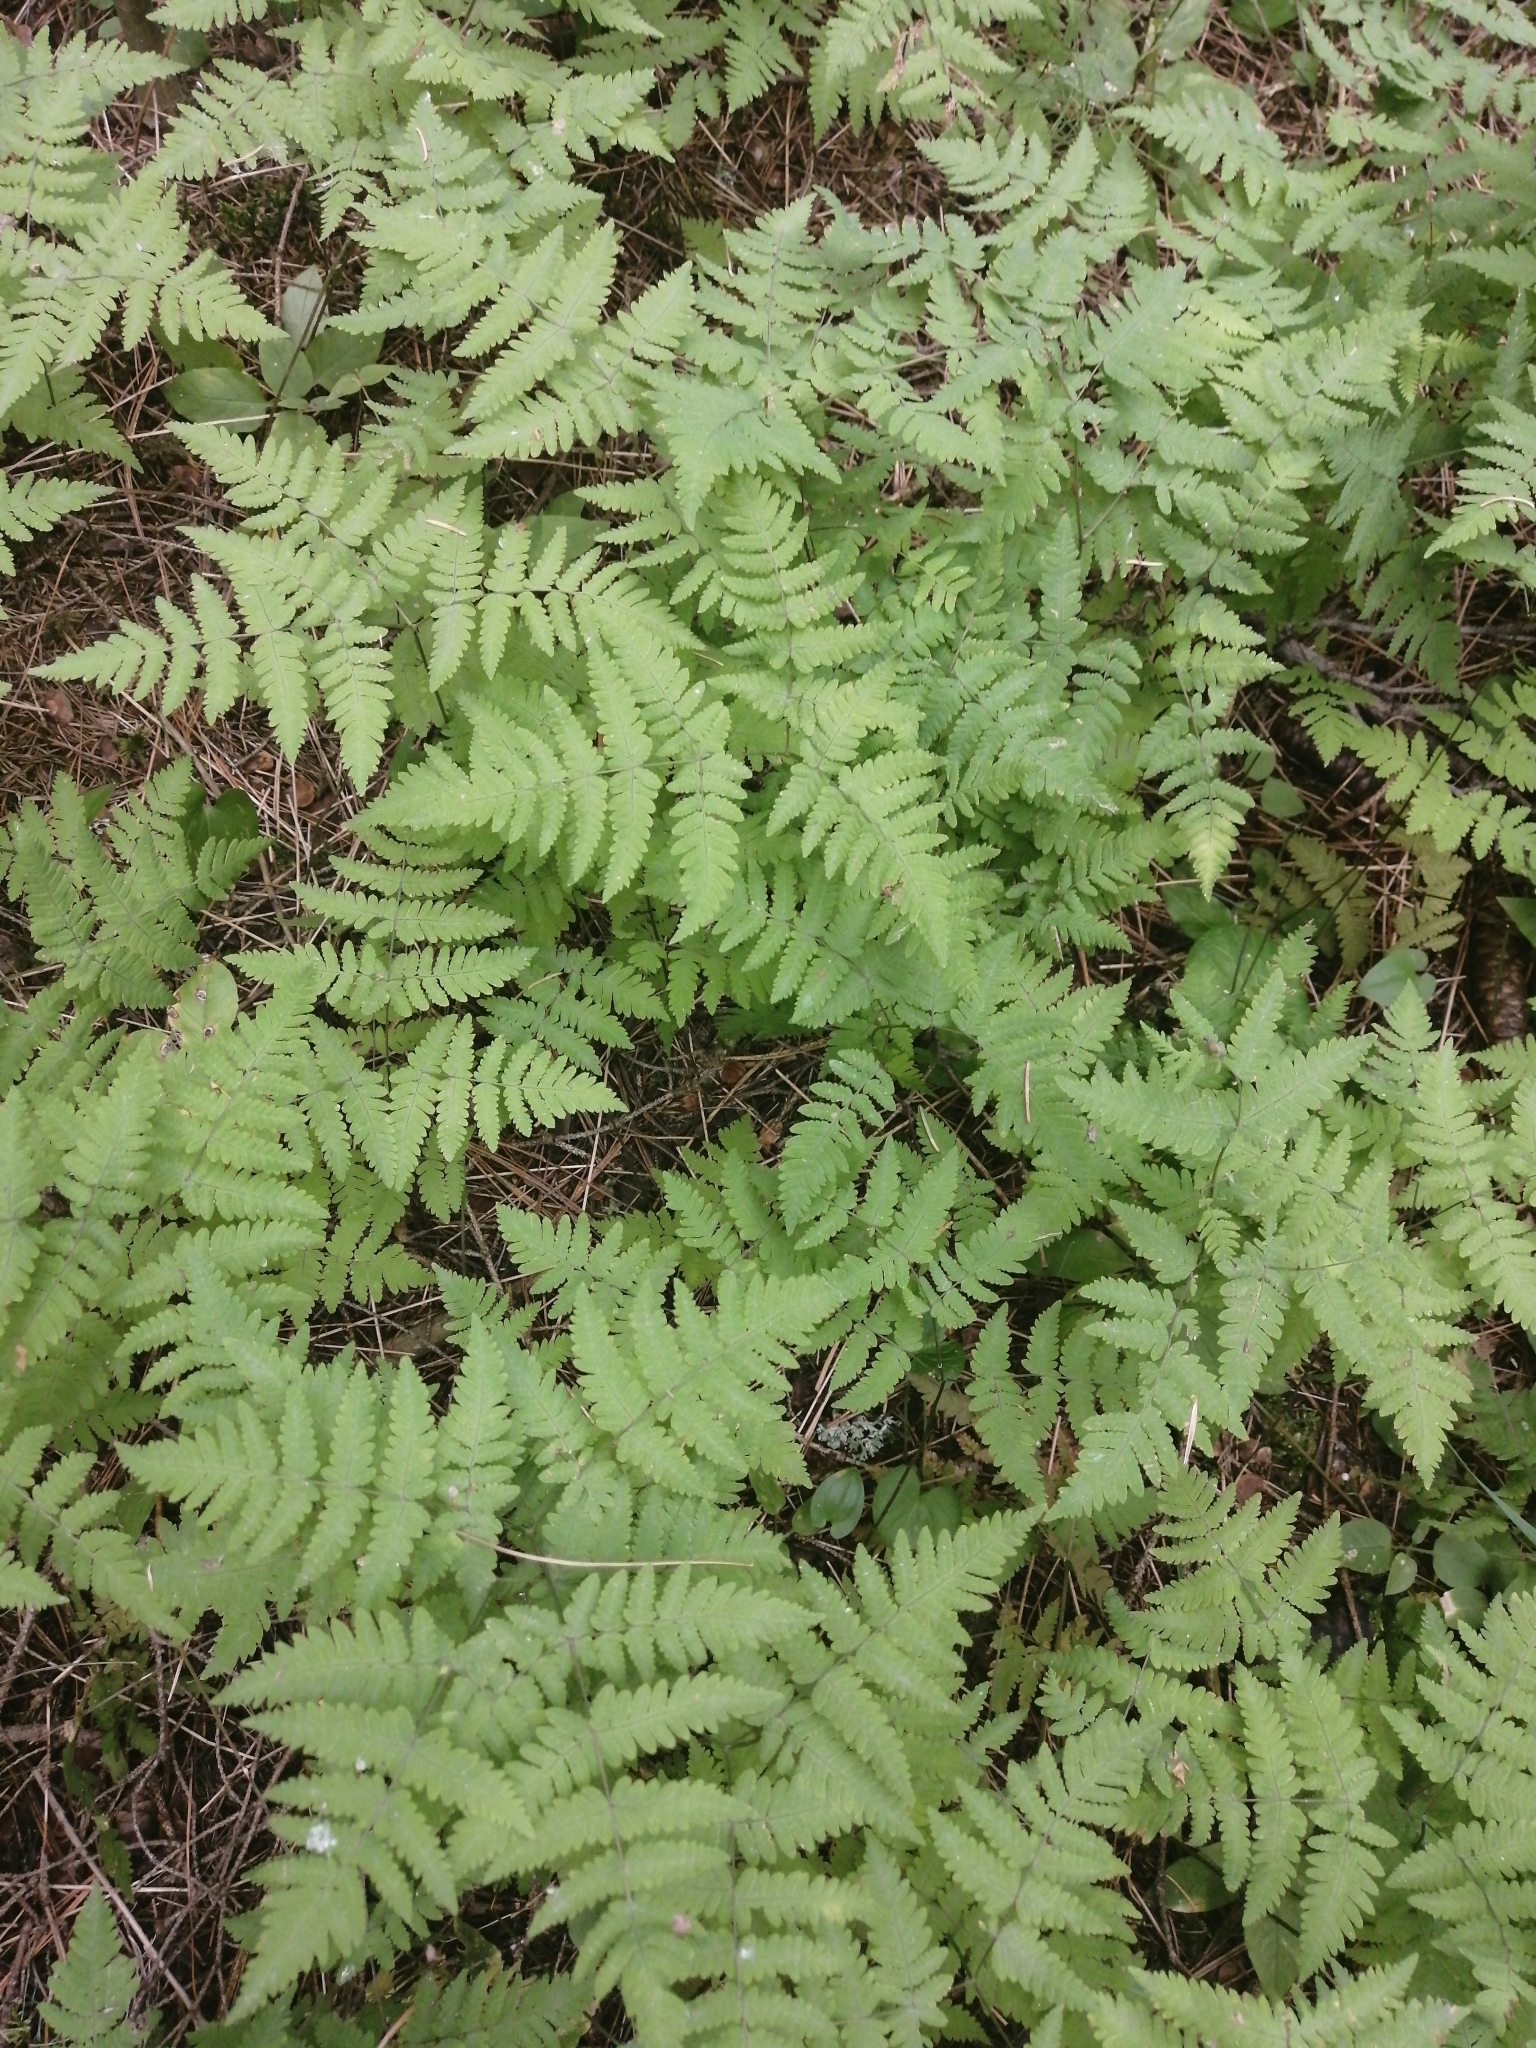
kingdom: Plantae
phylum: Tracheophyta
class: Polypodiopsida
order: Polypodiales
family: Cystopteridaceae
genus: Gymnocarpium
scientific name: Gymnocarpium dryopteris
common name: Oak fern
